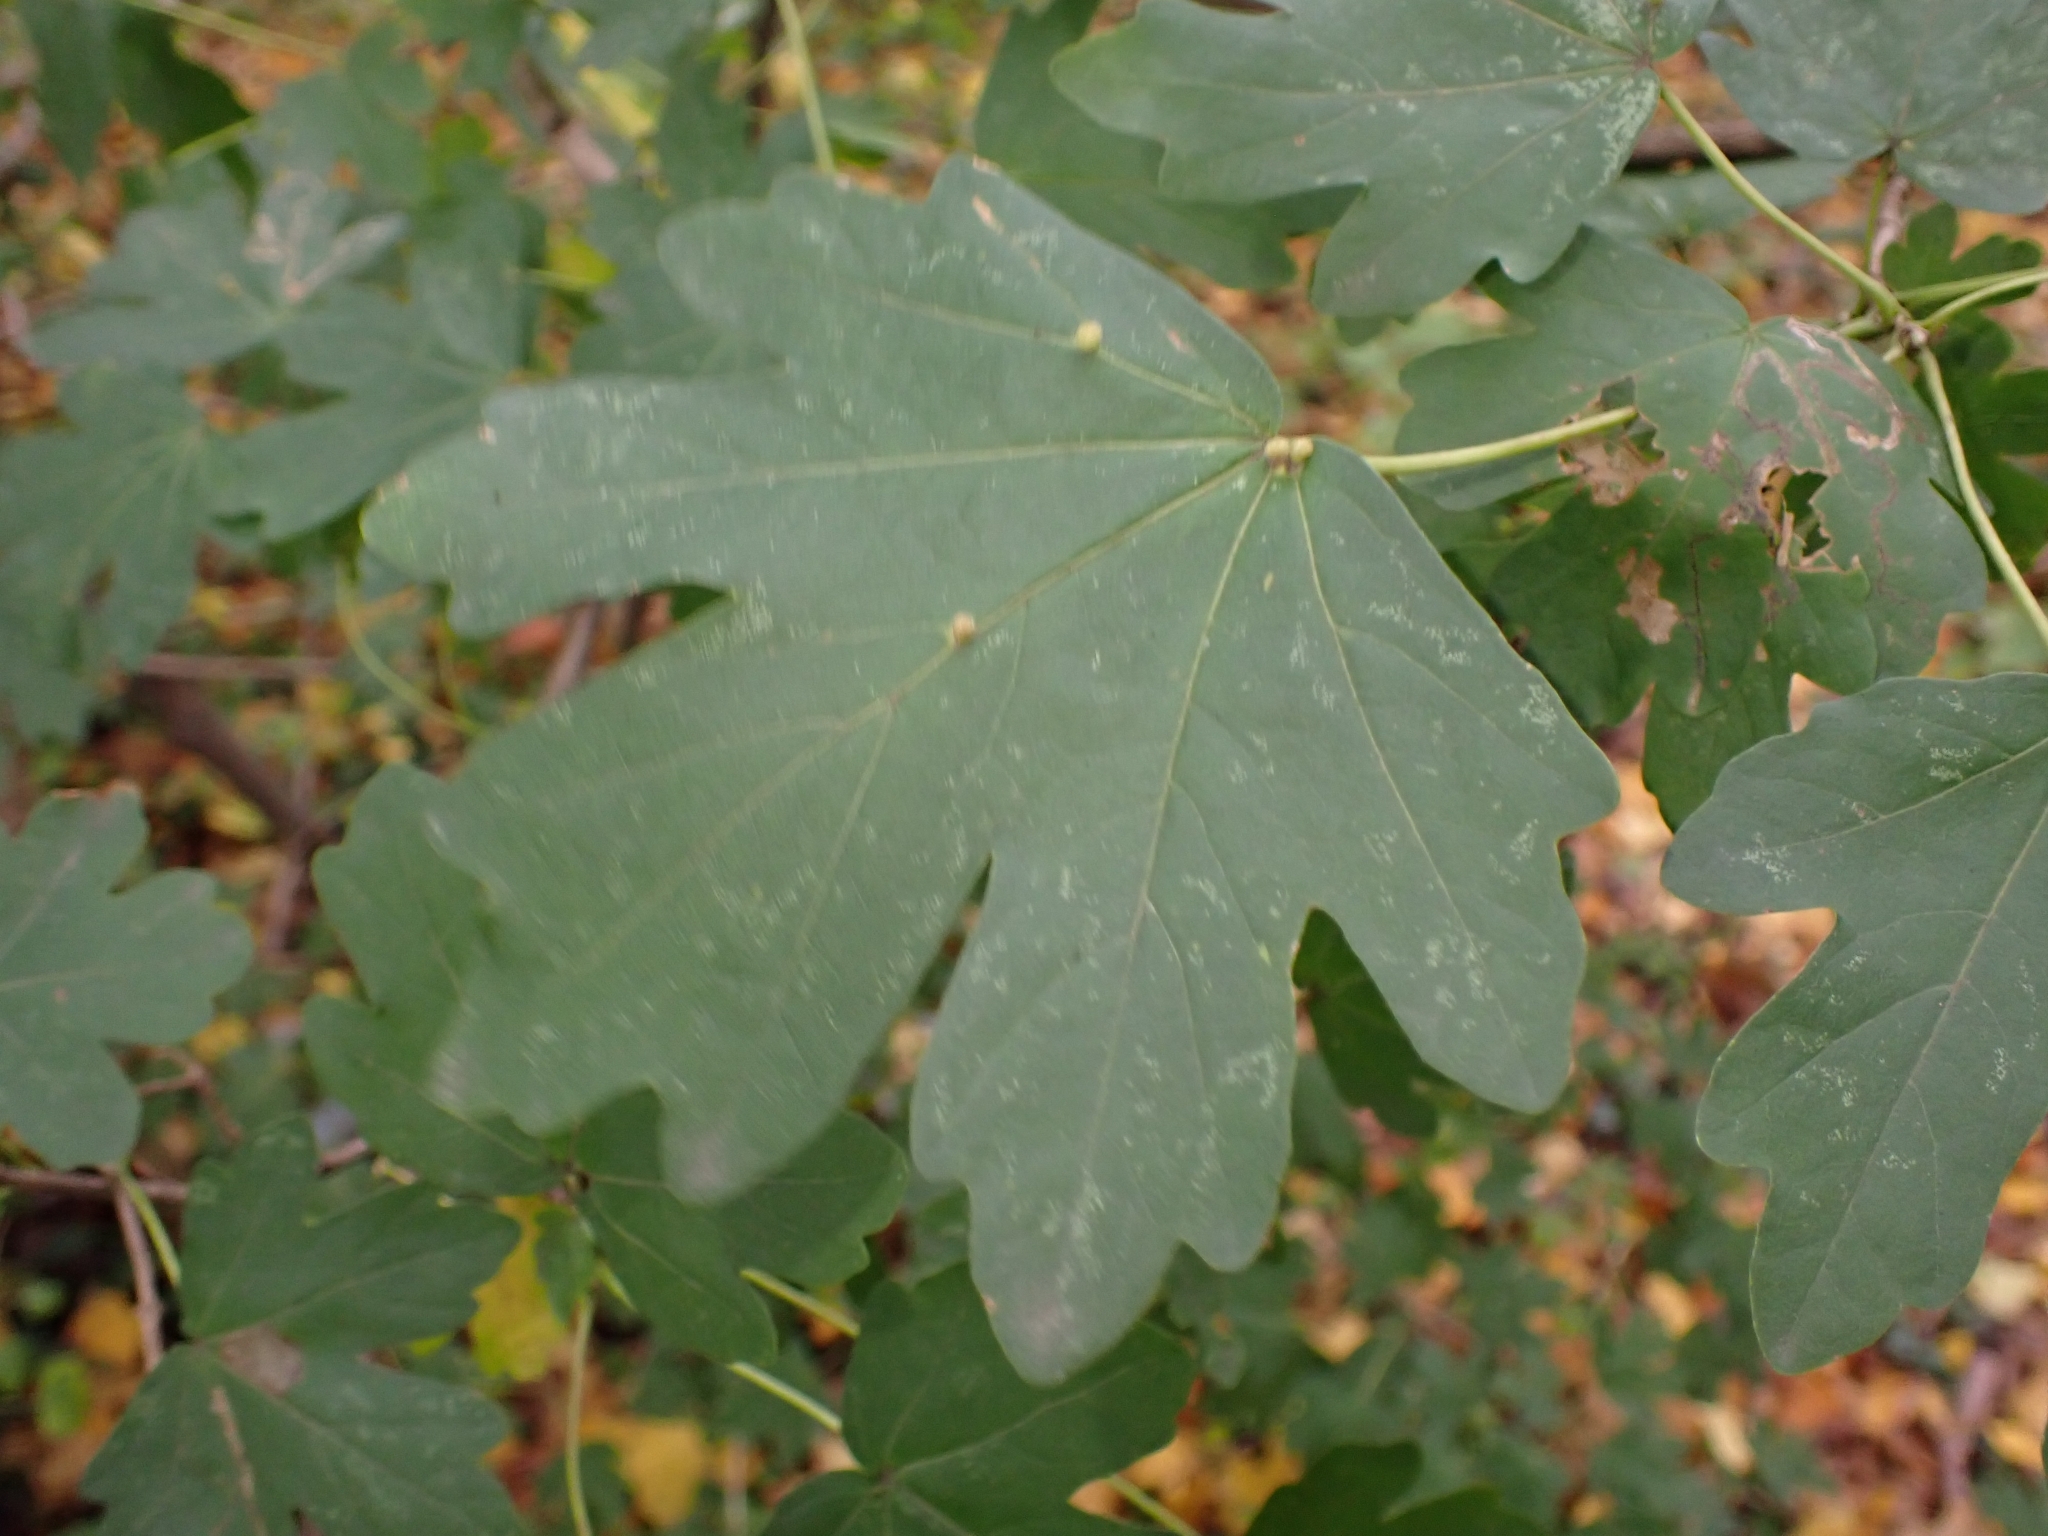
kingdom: Animalia
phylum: Arthropoda
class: Arachnida
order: Trombidiformes
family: Eriophyidae
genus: Aceria
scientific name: Aceria macrochelus
